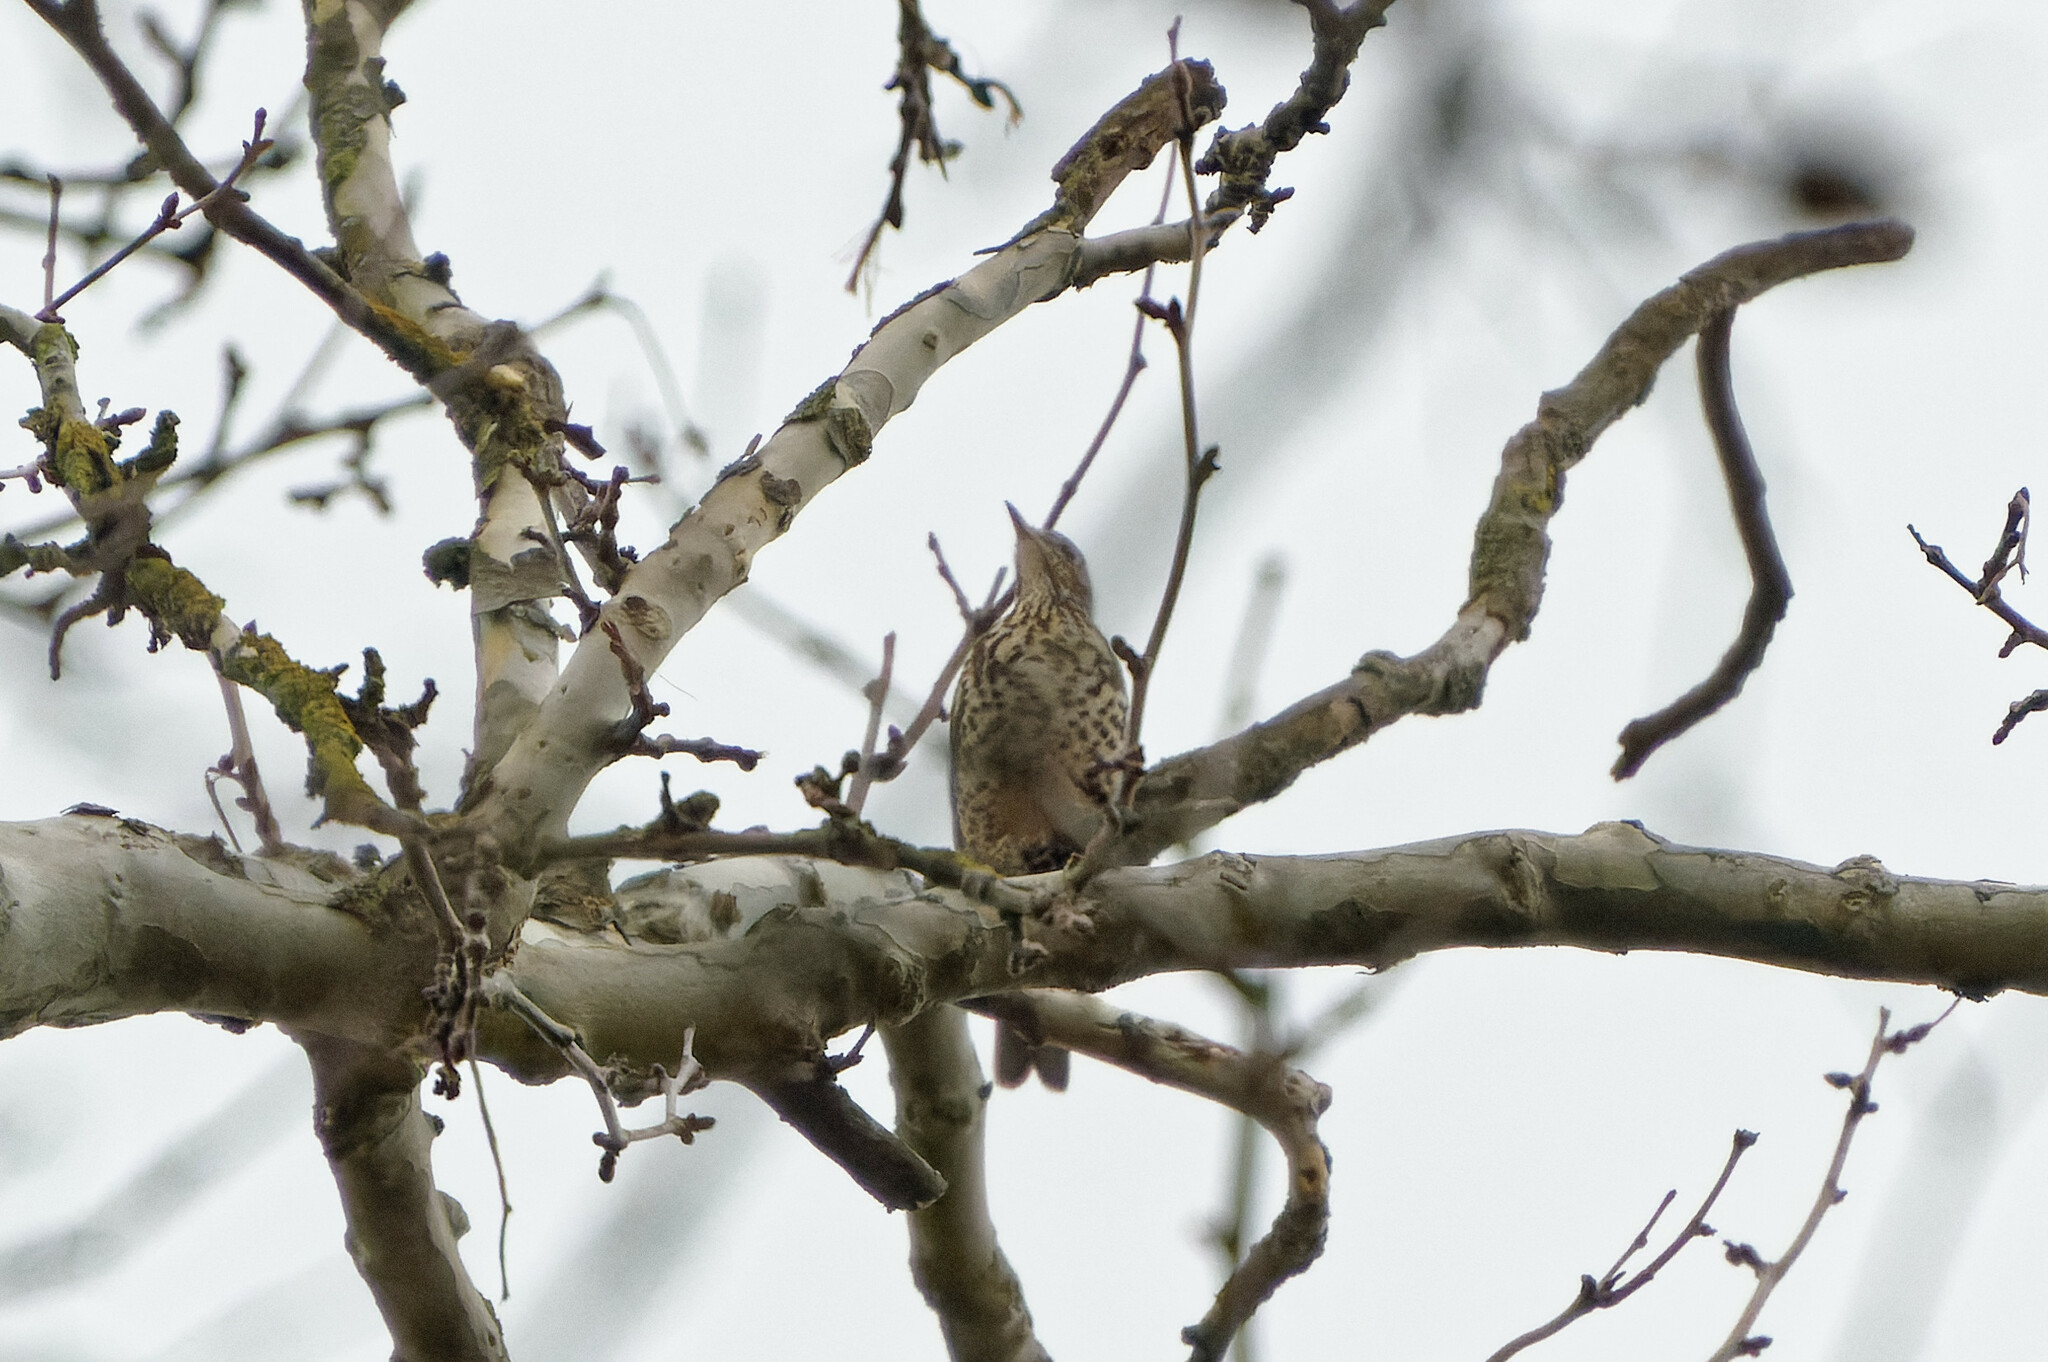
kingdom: Animalia
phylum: Chordata
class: Aves
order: Passeriformes
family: Turdidae
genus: Turdus
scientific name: Turdus viscivorus
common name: Mistle thrush
